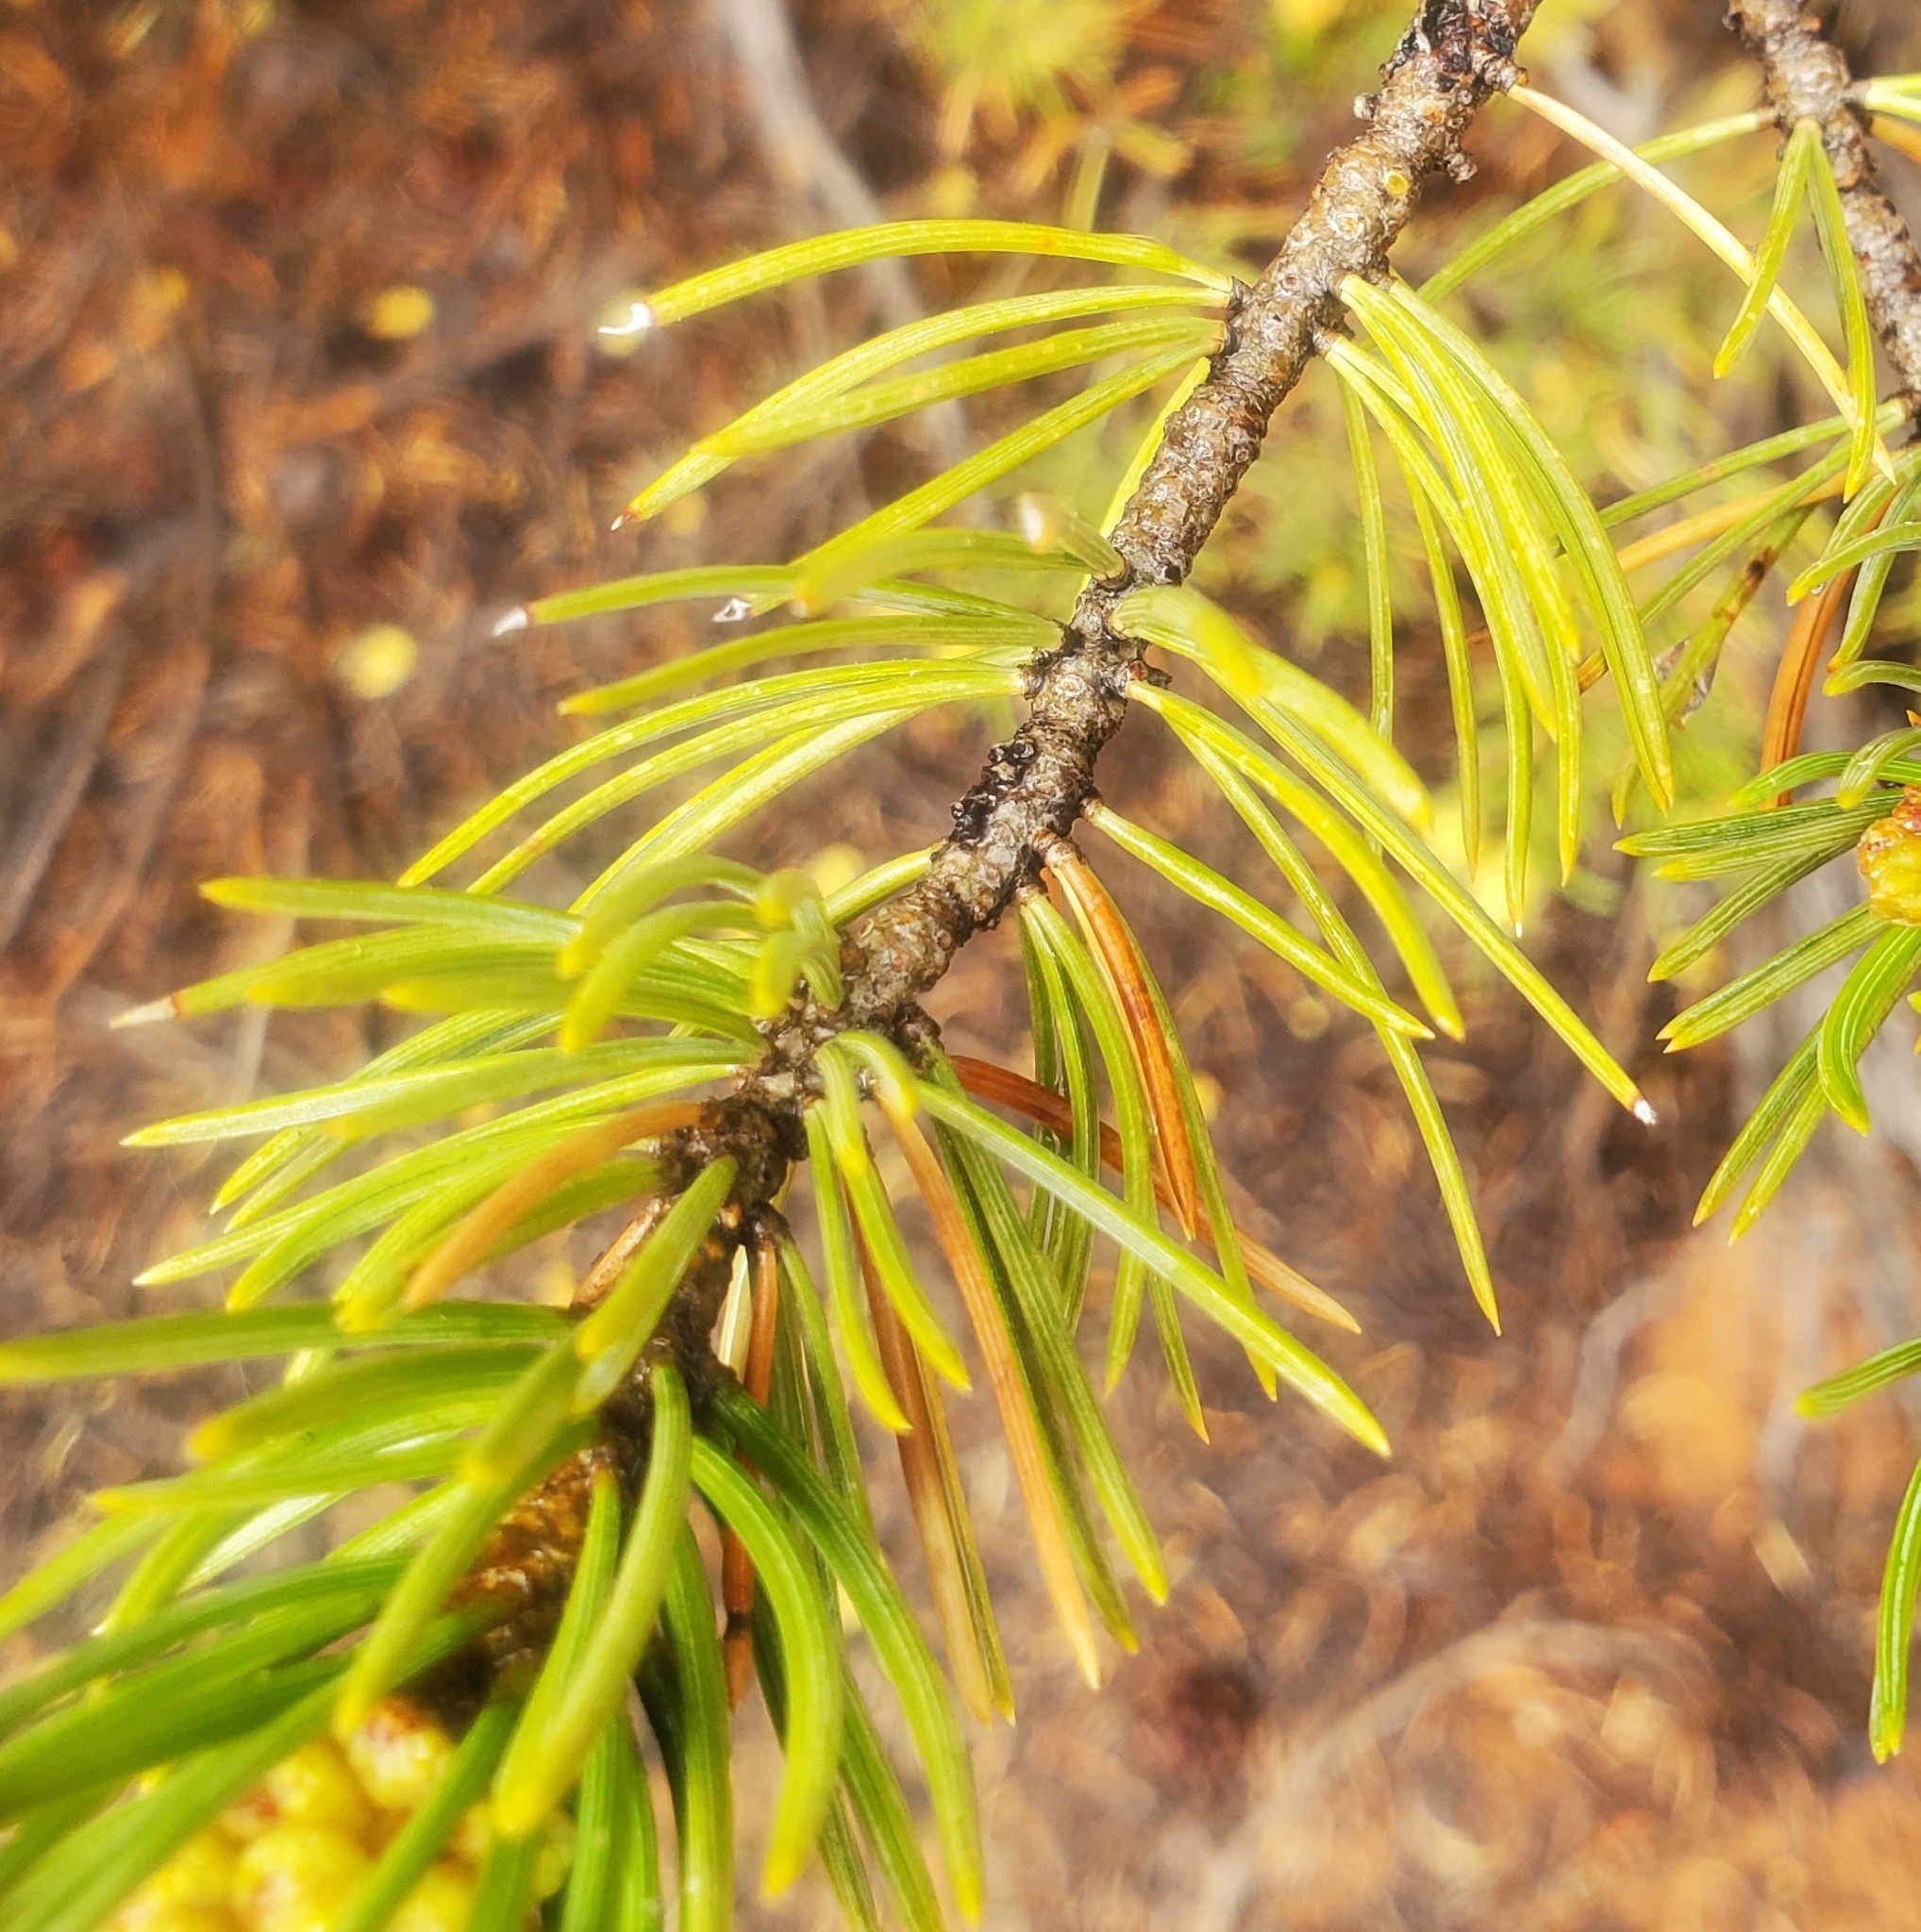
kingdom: Plantae
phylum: Tracheophyta
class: Pinopsida
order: Pinales
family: Pinaceae
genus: Pinus
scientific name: Pinus edulis
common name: Colorado pinyon
